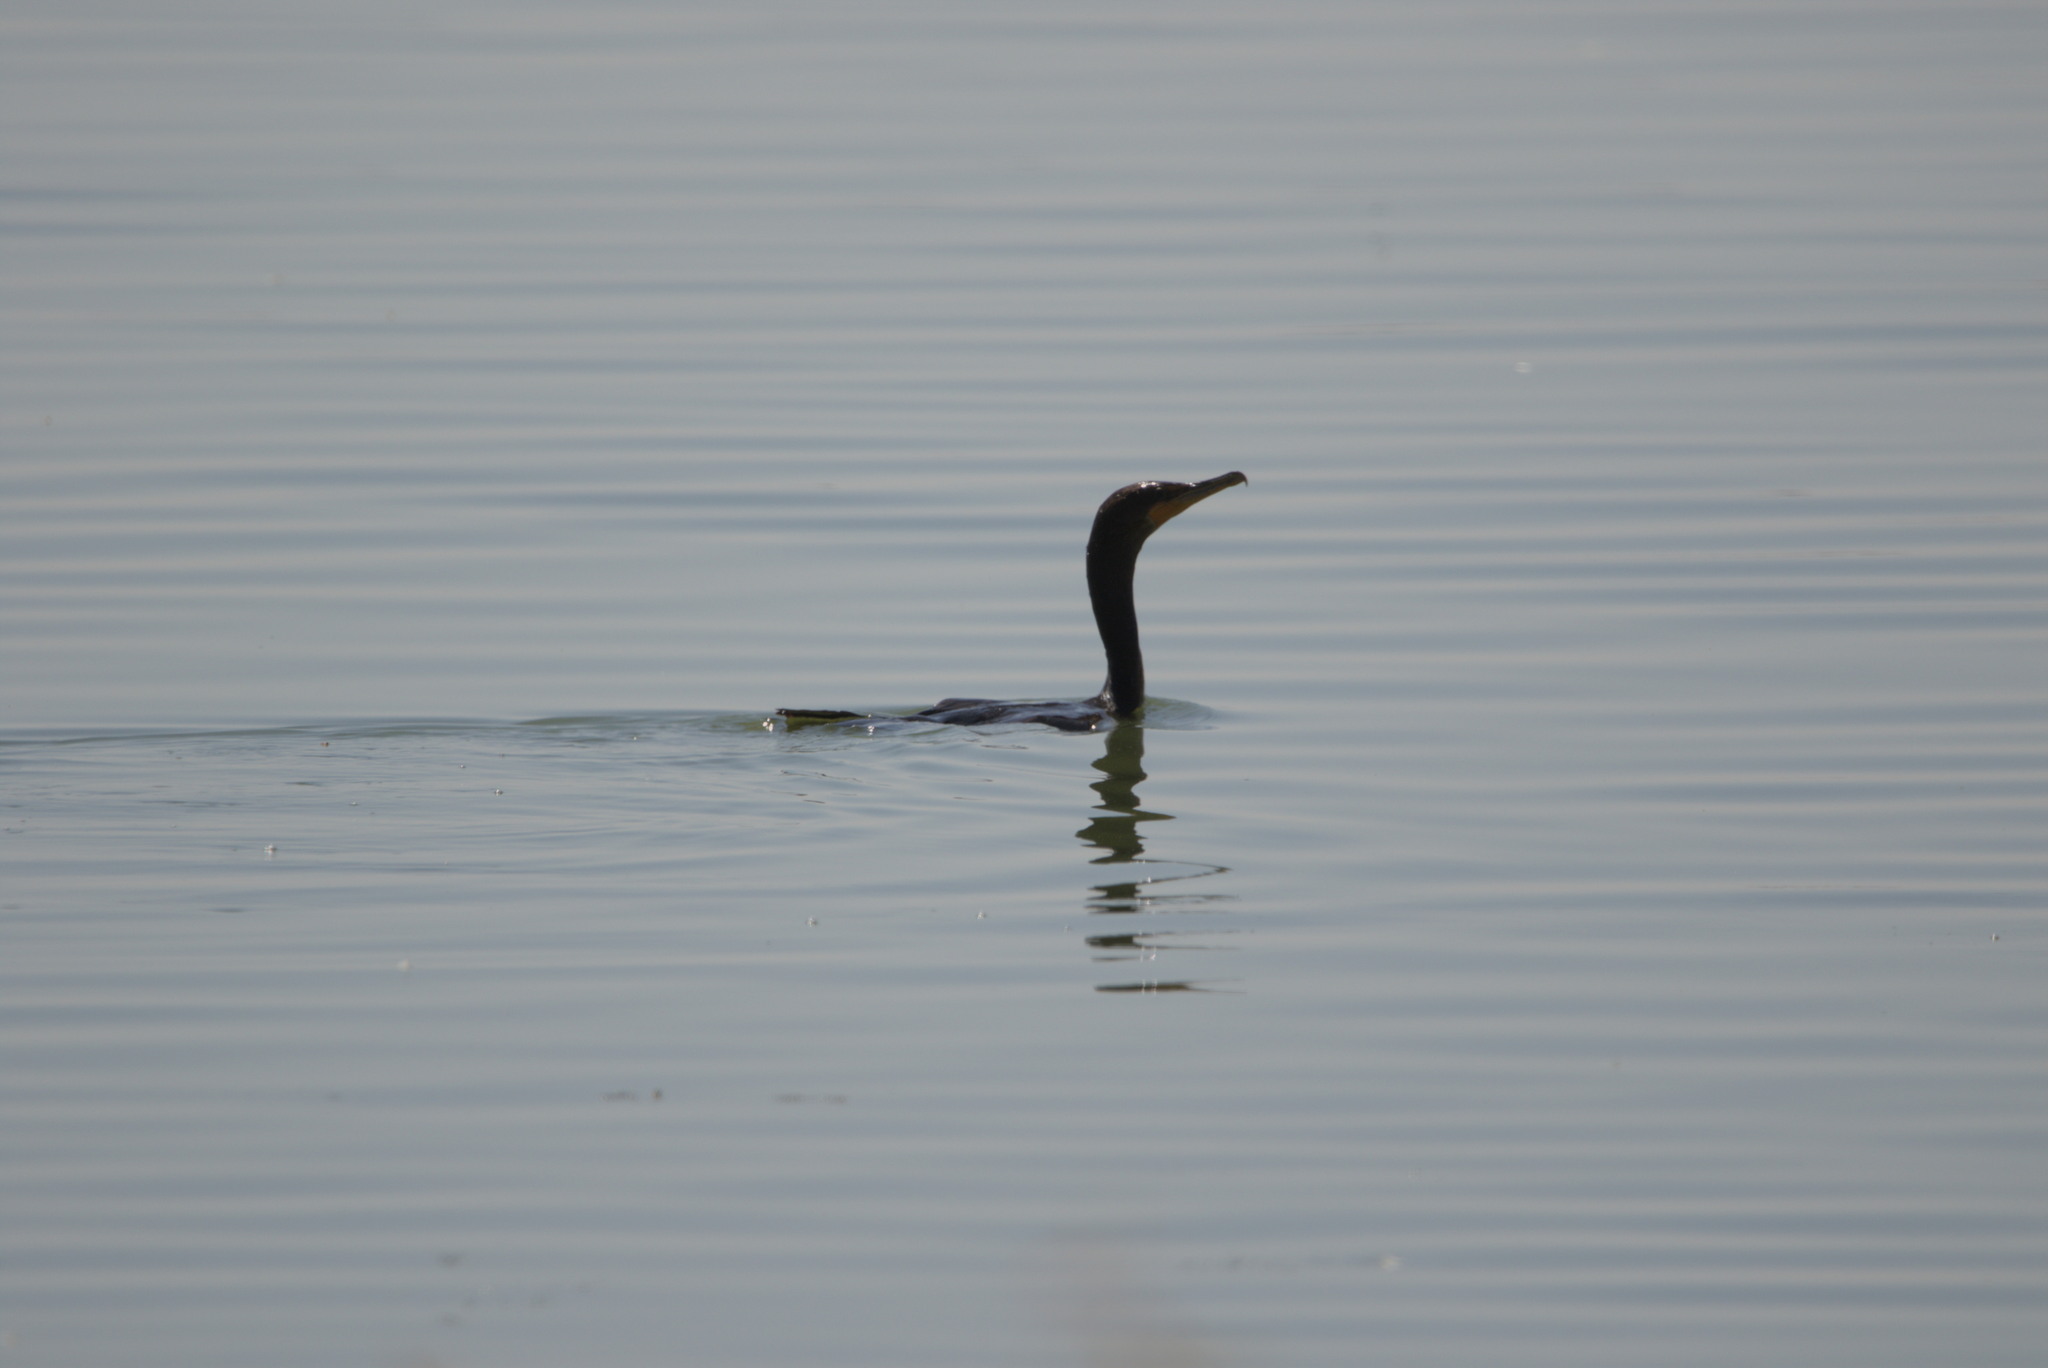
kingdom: Animalia
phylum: Chordata
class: Aves
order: Suliformes
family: Phalacrocoracidae
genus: Phalacrocorax
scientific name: Phalacrocorax auritus
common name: Double-crested cormorant
